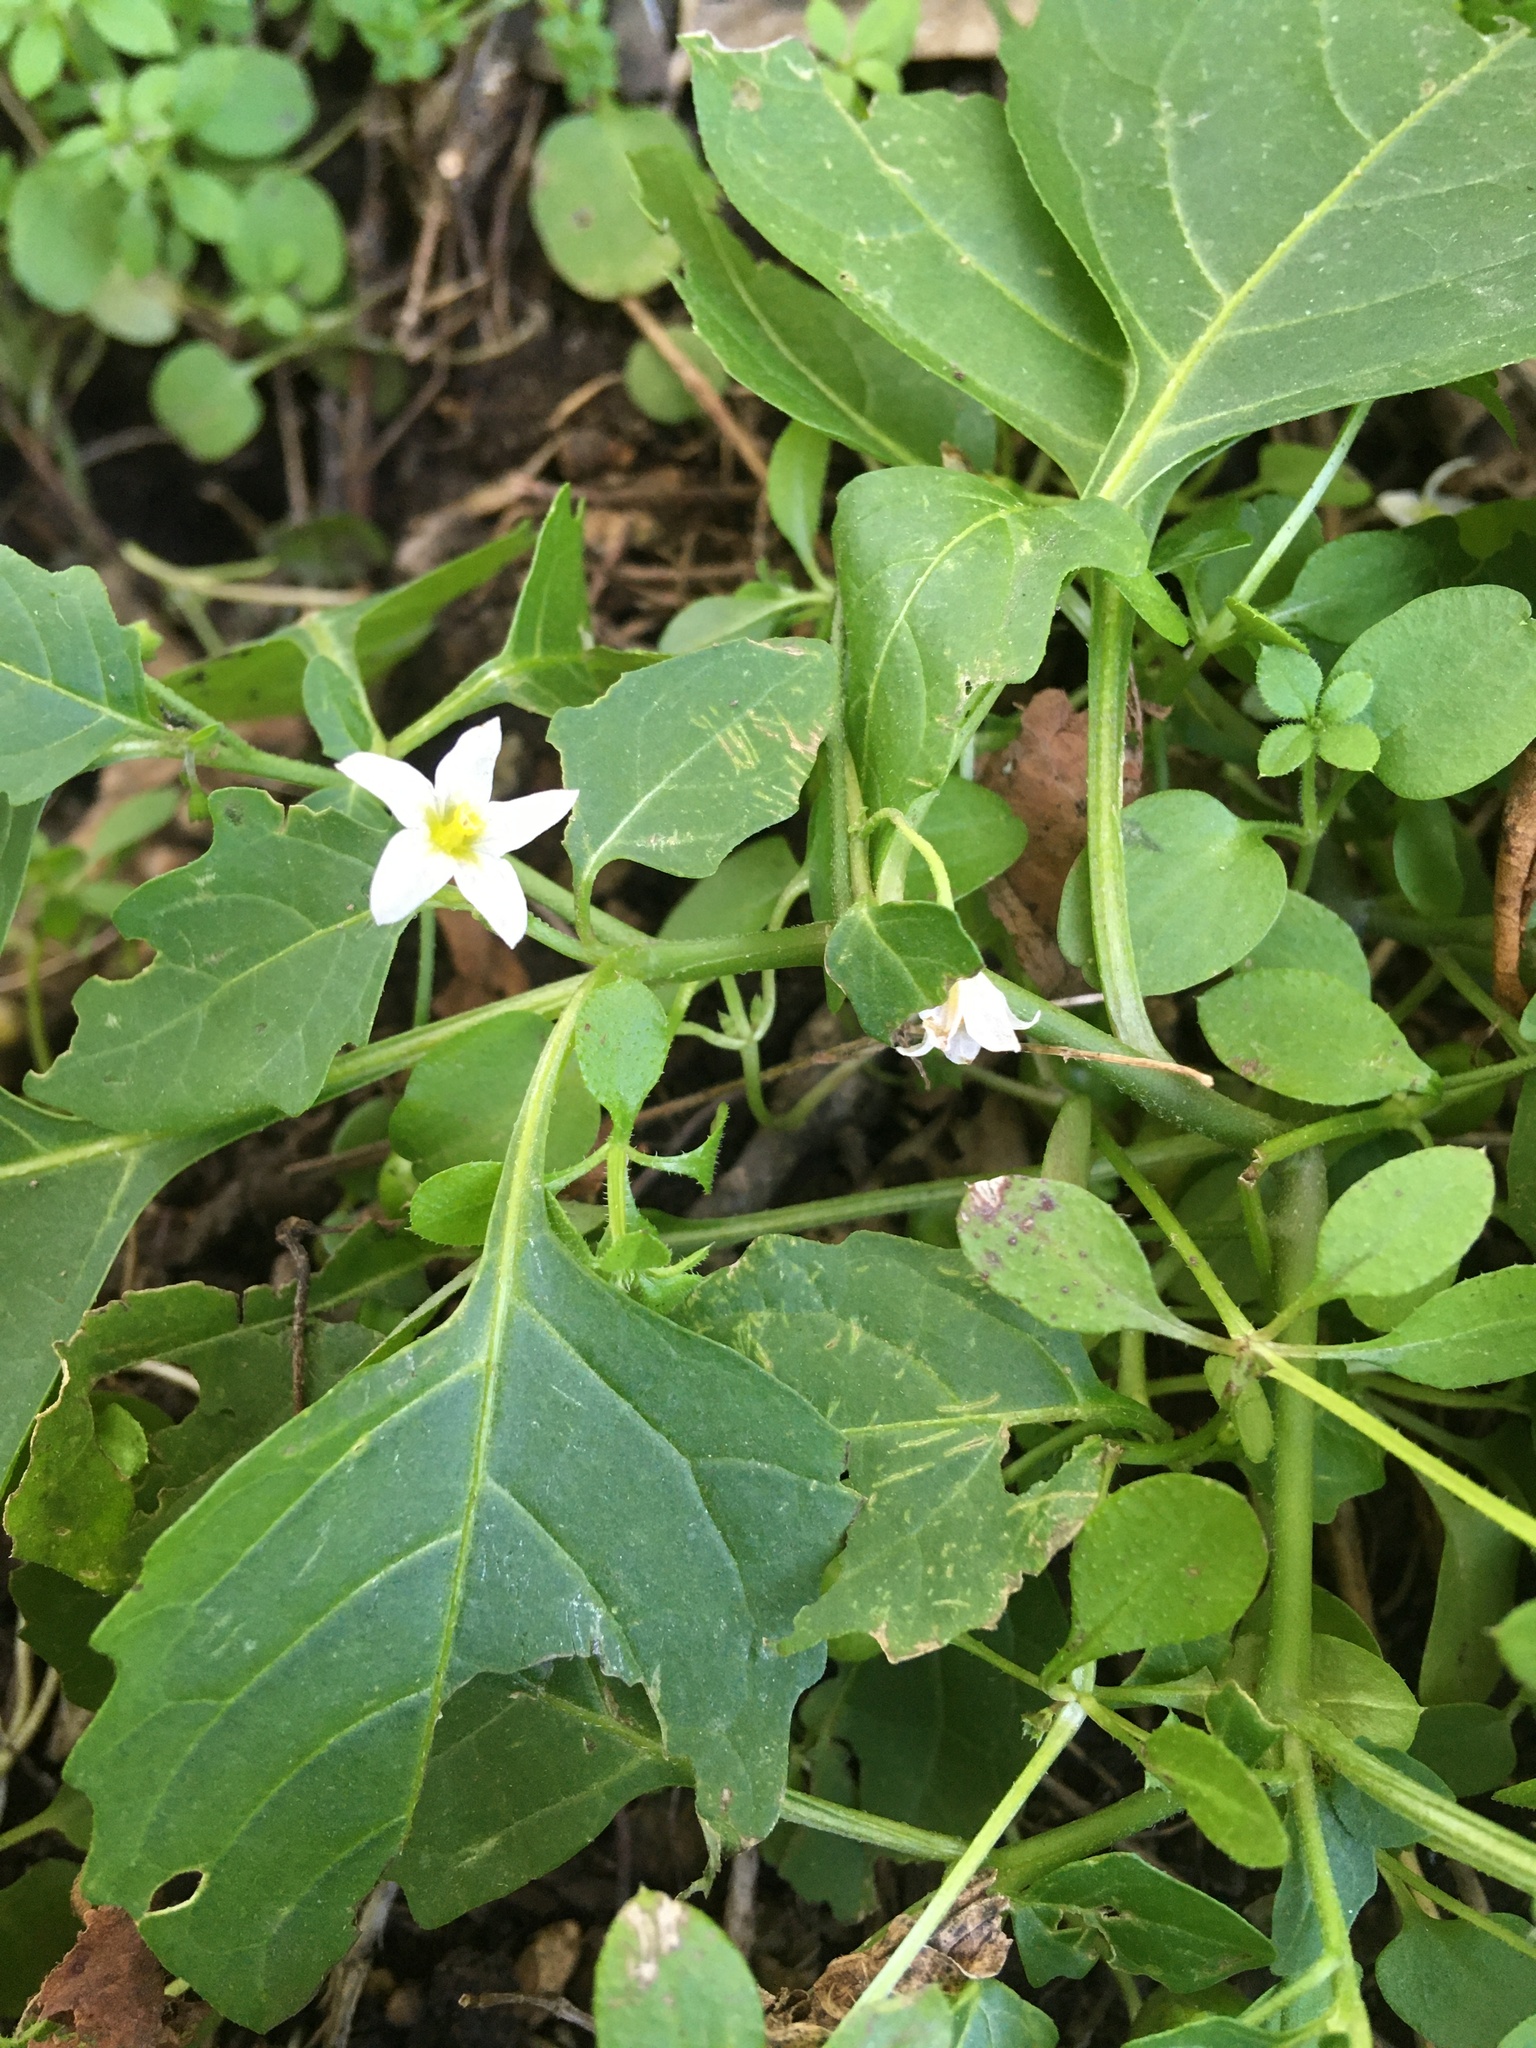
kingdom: Plantae
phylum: Tracheophyta
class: Magnoliopsida
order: Solanales
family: Solanaceae
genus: Solanum
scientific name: Solanum emulans
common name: Eastern black nightshade
